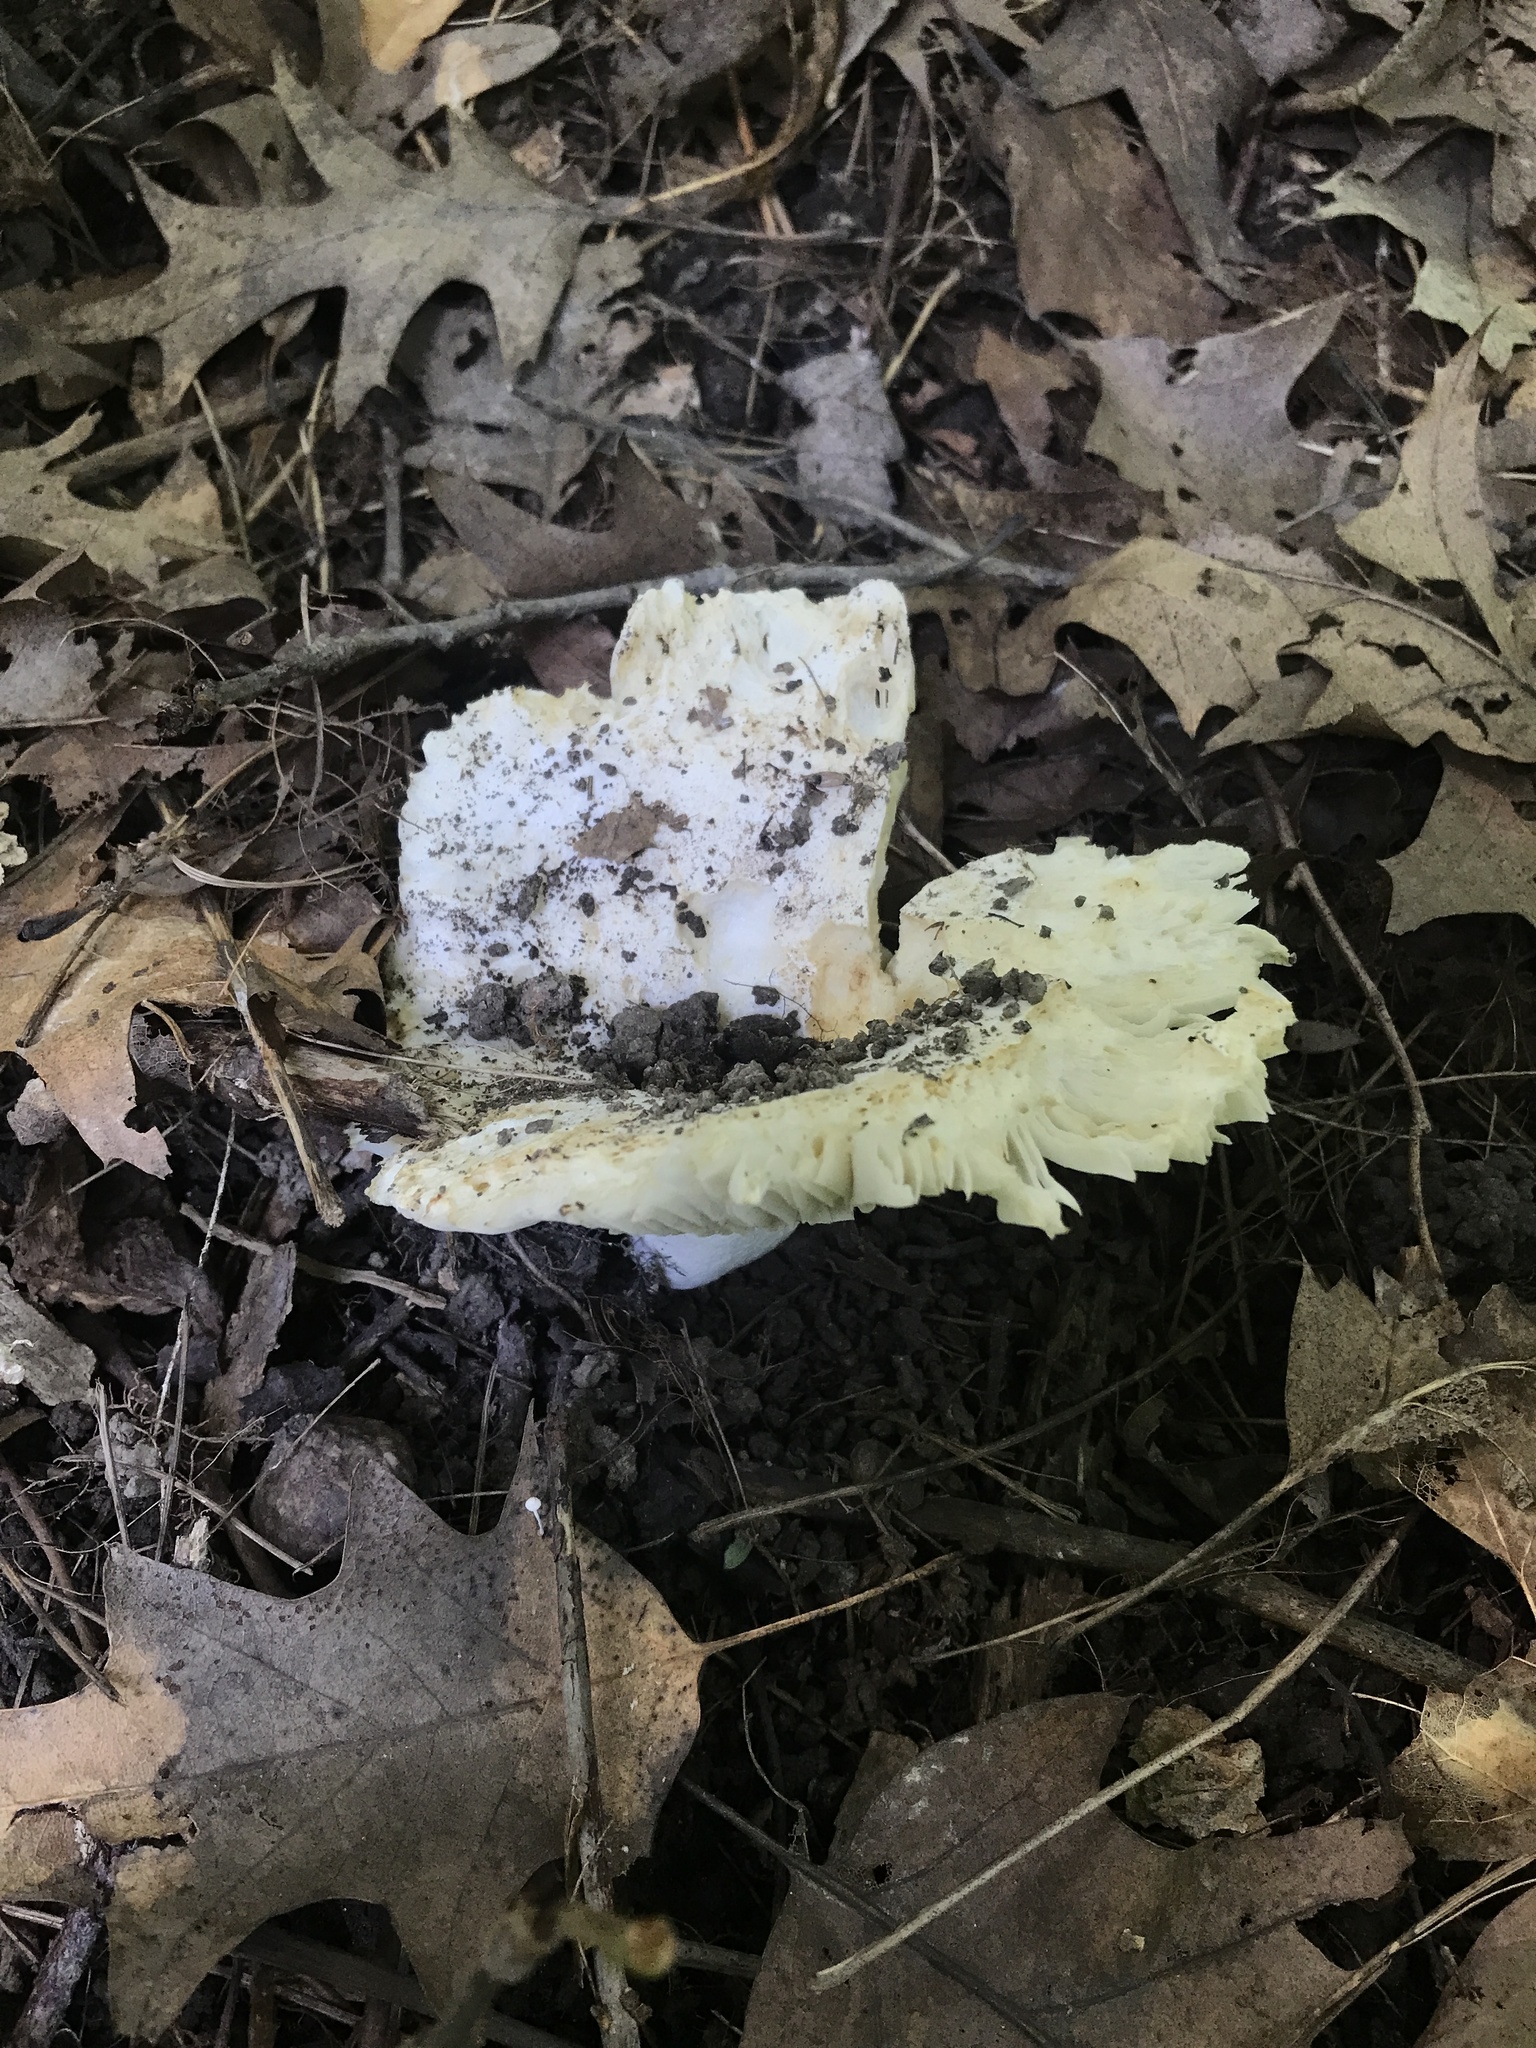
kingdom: Fungi
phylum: Basidiomycota
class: Agaricomycetes
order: Russulales
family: Russulaceae
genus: Russula
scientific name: Russula brevipes
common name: Short-stemmed russula
